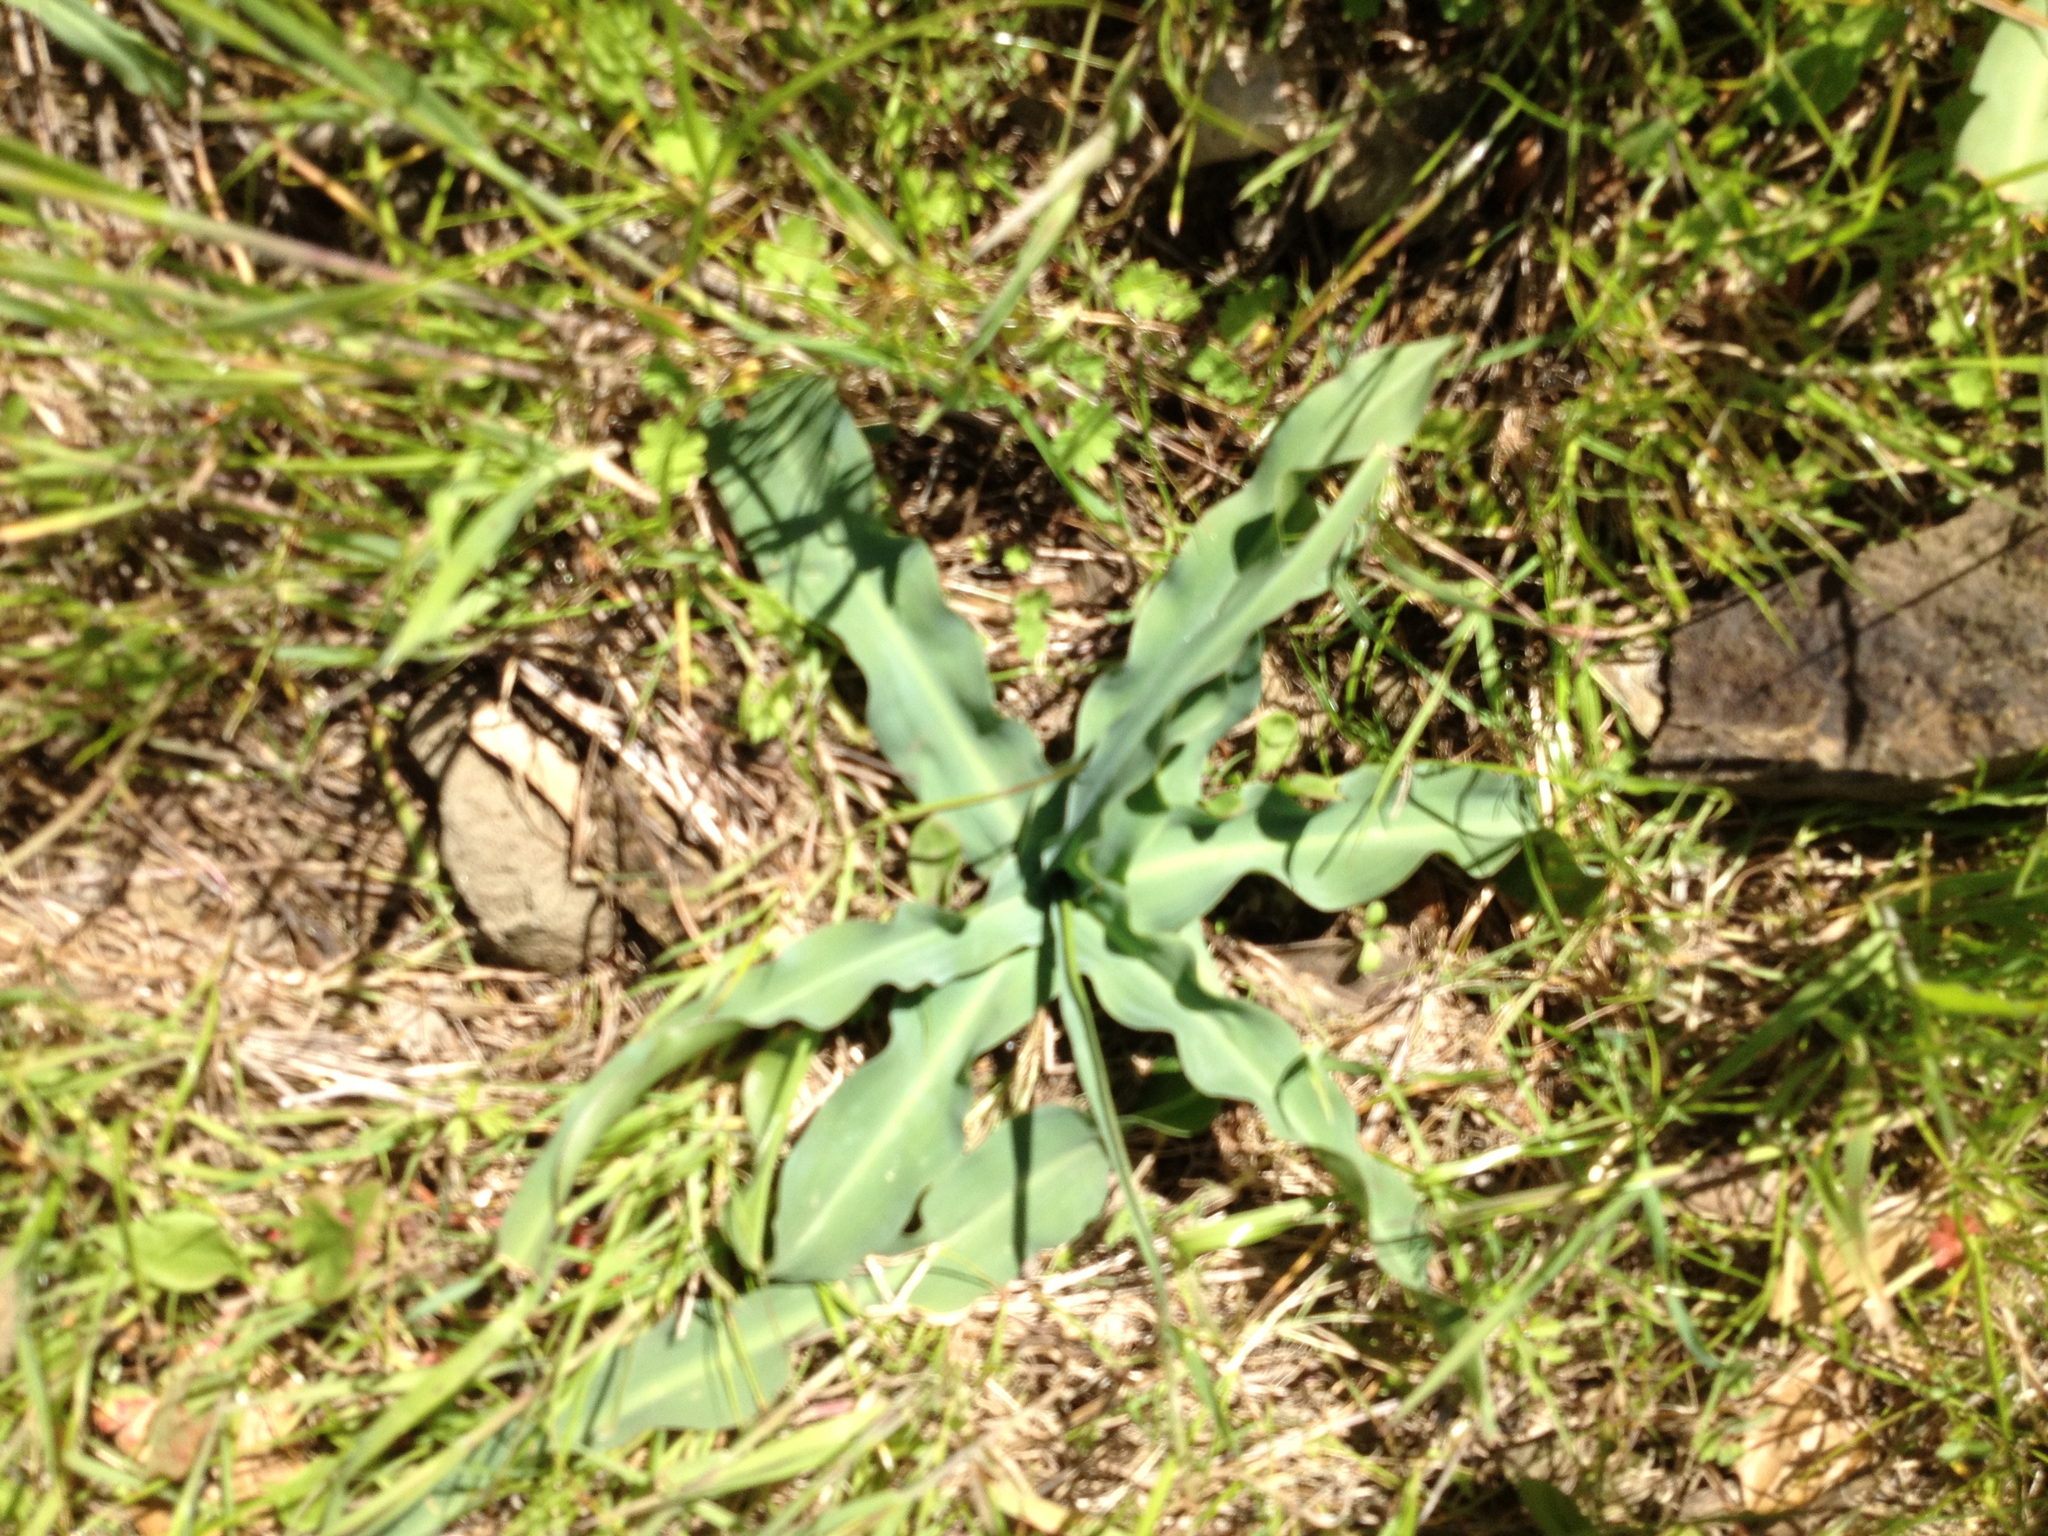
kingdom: Plantae
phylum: Tracheophyta
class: Liliopsida
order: Asparagales
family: Asparagaceae
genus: Chlorogalum
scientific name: Chlorogalum pomeridianum
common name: Amole
